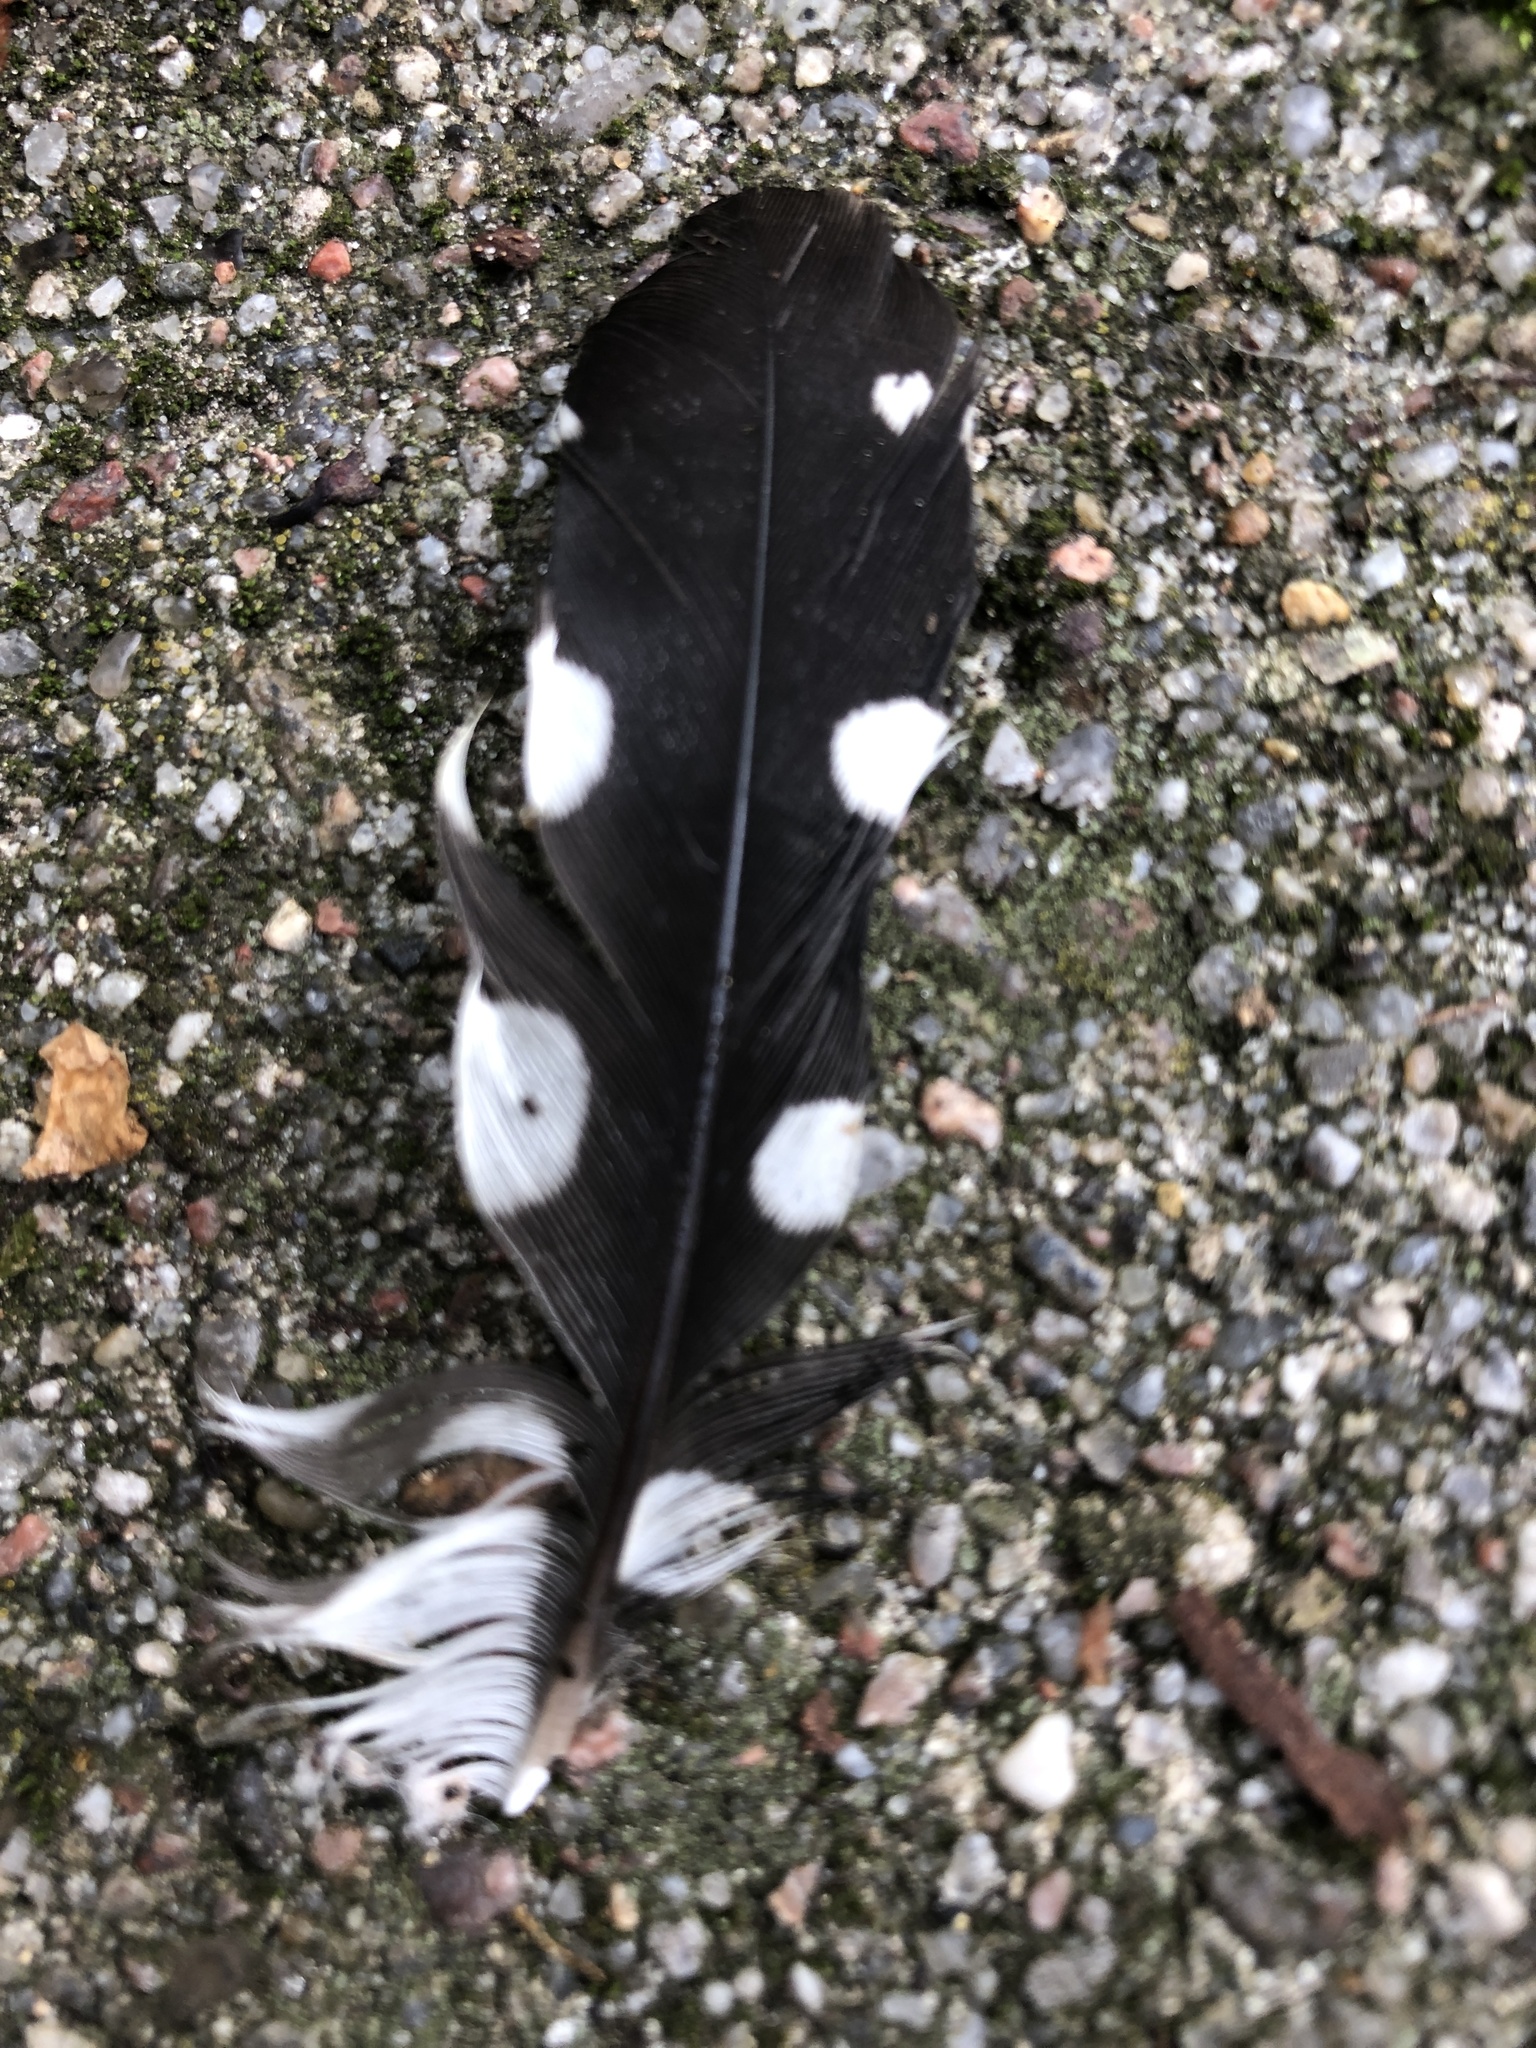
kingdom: Animalia
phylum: Chordata
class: Aves
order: Piciformes
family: Picidae
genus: Dendrocopos
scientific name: Dendrocopos major
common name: Great spotted woodpecker
